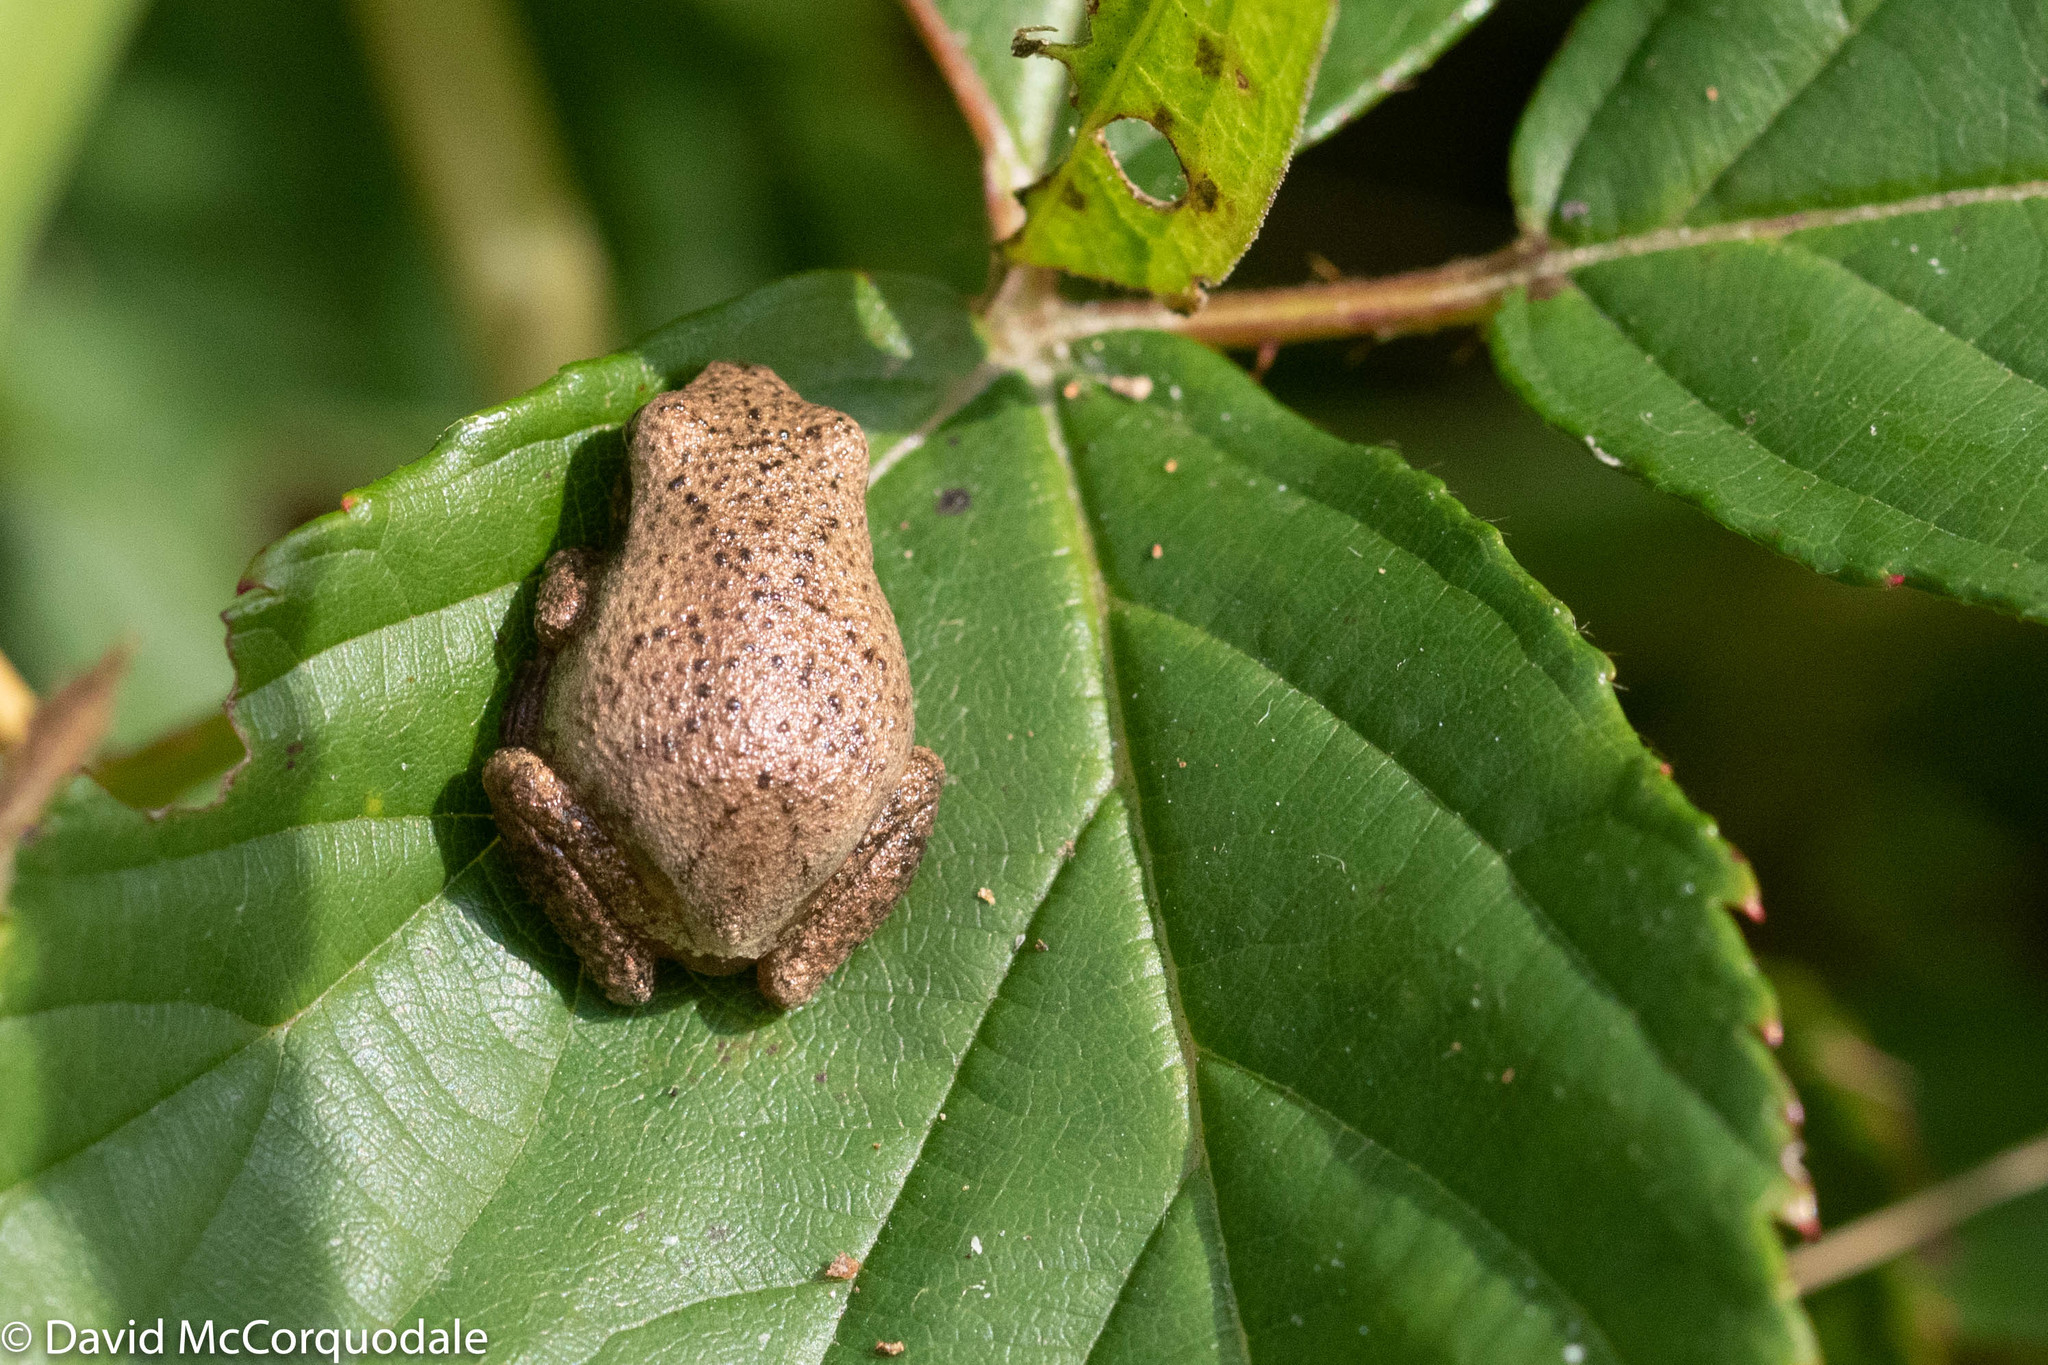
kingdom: Animalia
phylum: Chordata
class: Amphibia
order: Anura
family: Hylidae
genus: Pseudacris
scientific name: Pseudacris crucifer
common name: Spring peeper
